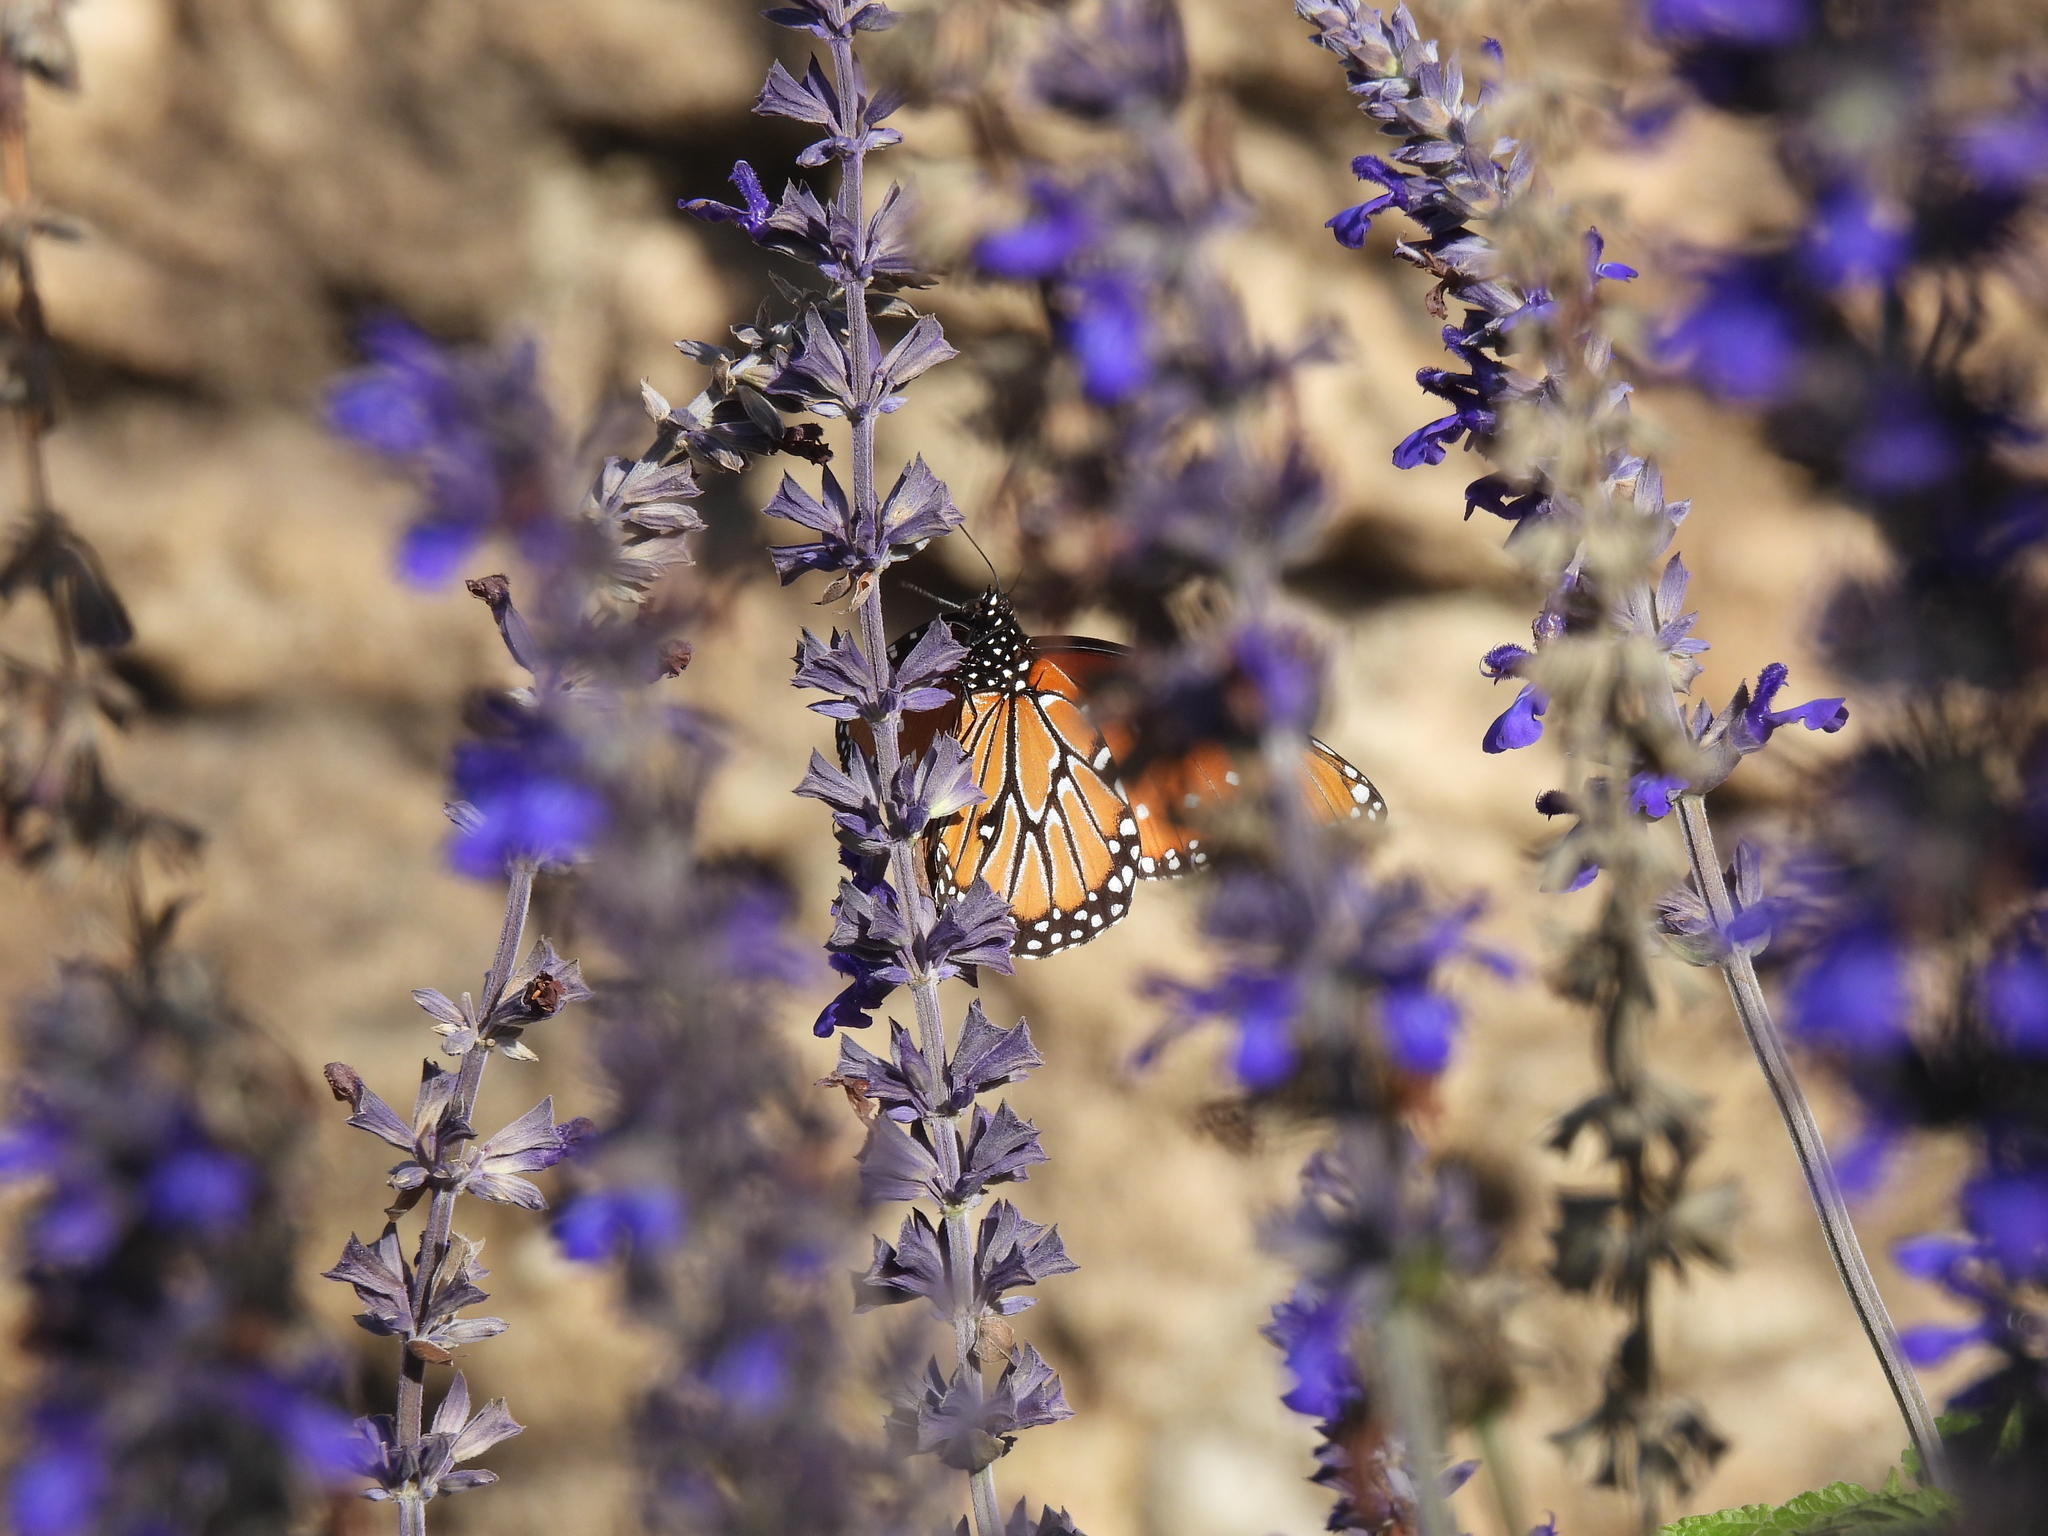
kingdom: Animalia
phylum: Arthropoda
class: Insecta
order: Lepidoptera
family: Nymphalidae
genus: Danaus
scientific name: Danaus gilippus
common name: Queen
